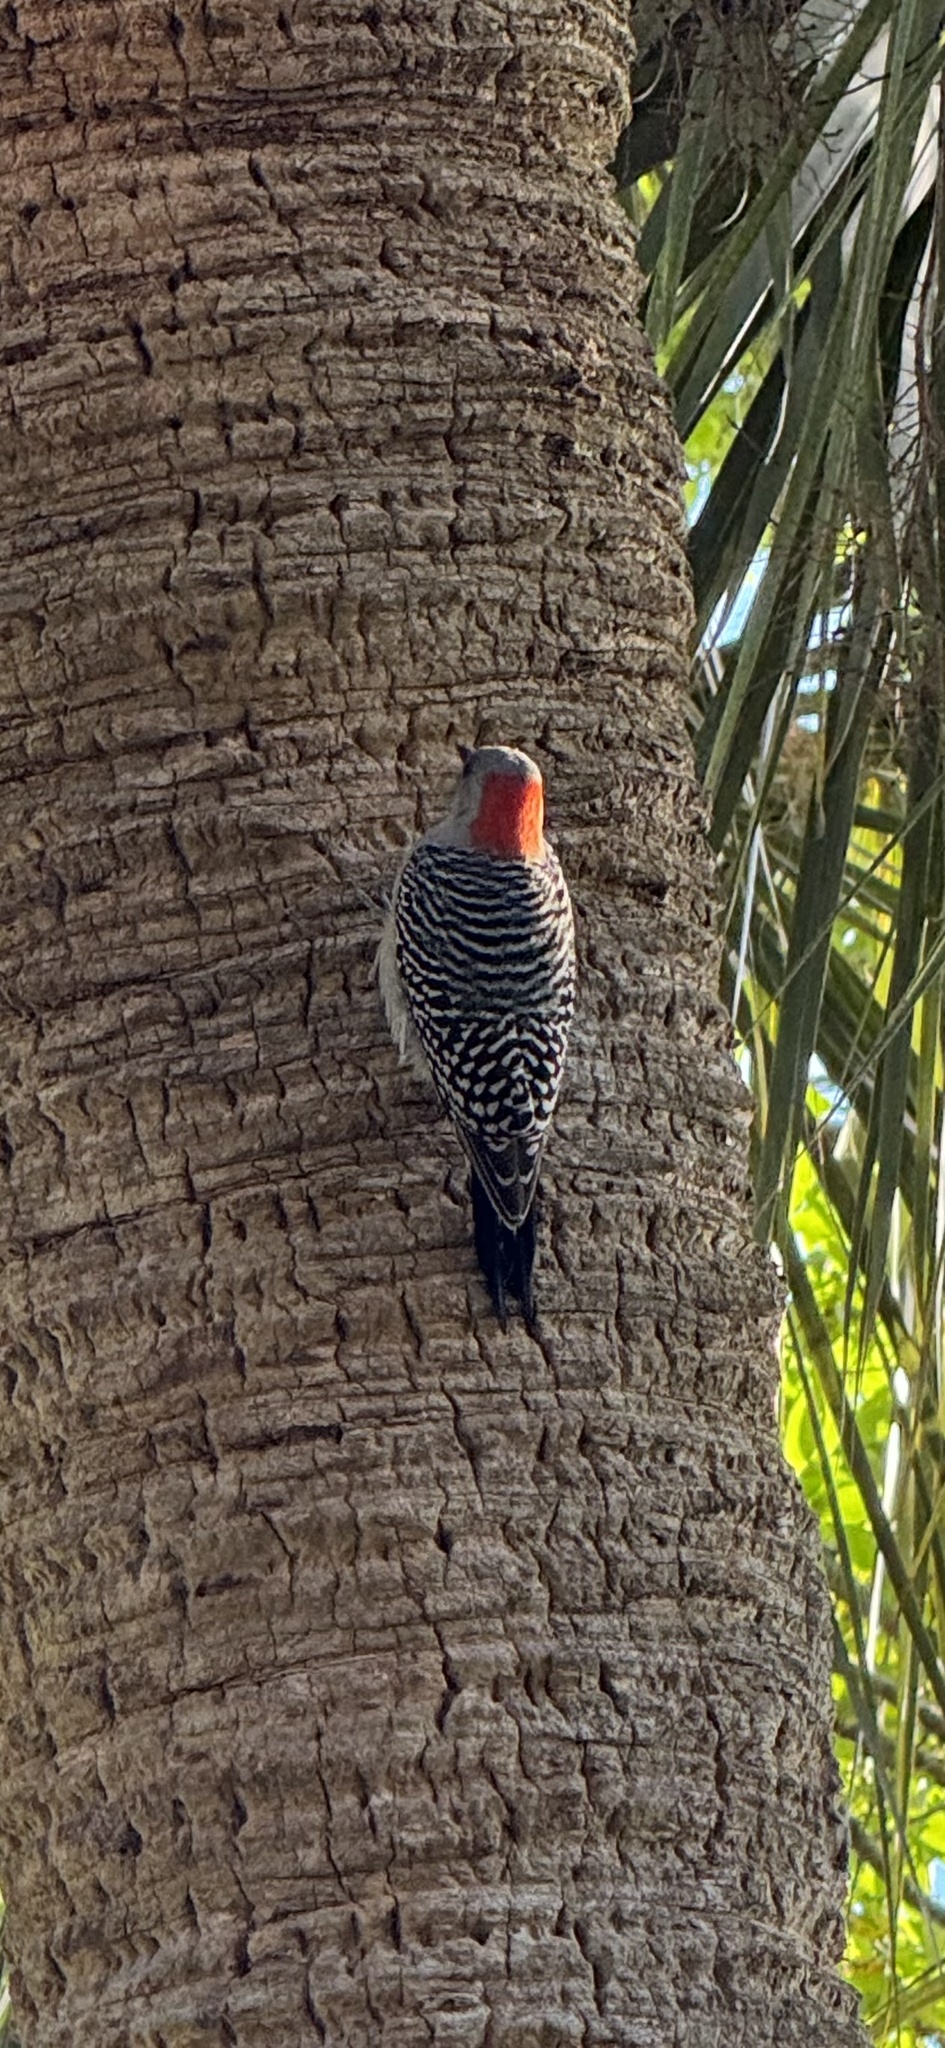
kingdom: Animalia
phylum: Chordata
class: Aves
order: Piciformes
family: Picidae
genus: Melanerpes
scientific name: Melanerpes carolinus
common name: Red-bellied woodpecker
